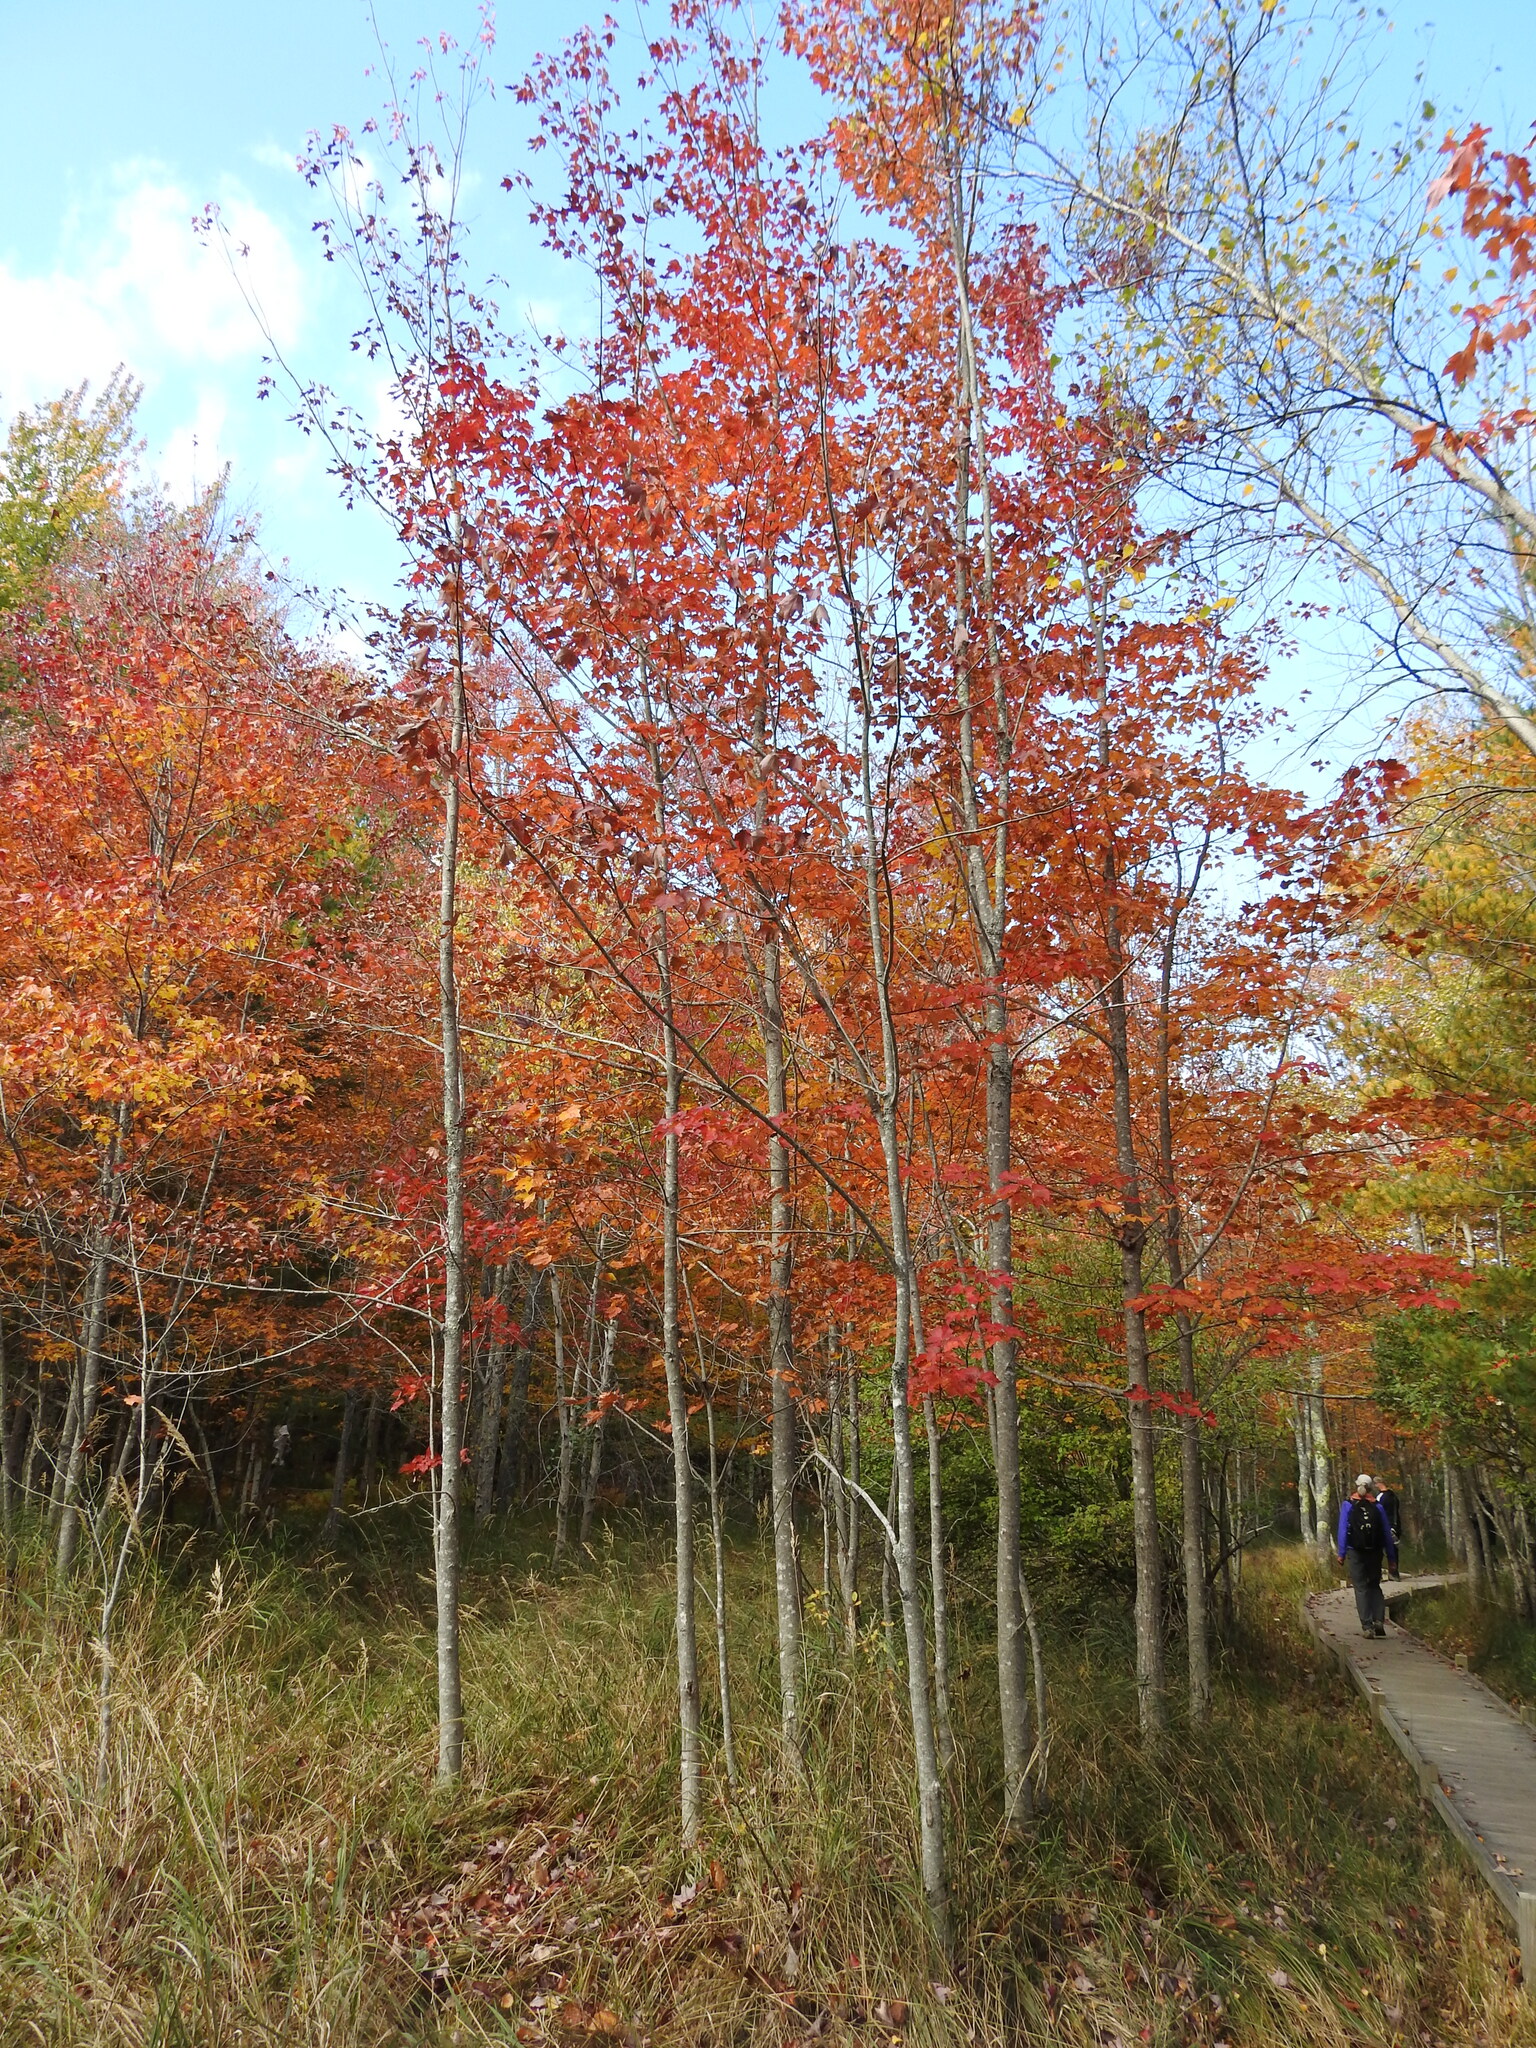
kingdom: Plantae
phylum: Tracheophyta
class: Magnoliopsida
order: Sapindales
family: Sapindaceae
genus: Acer
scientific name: Acer rubrum
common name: Red maple
